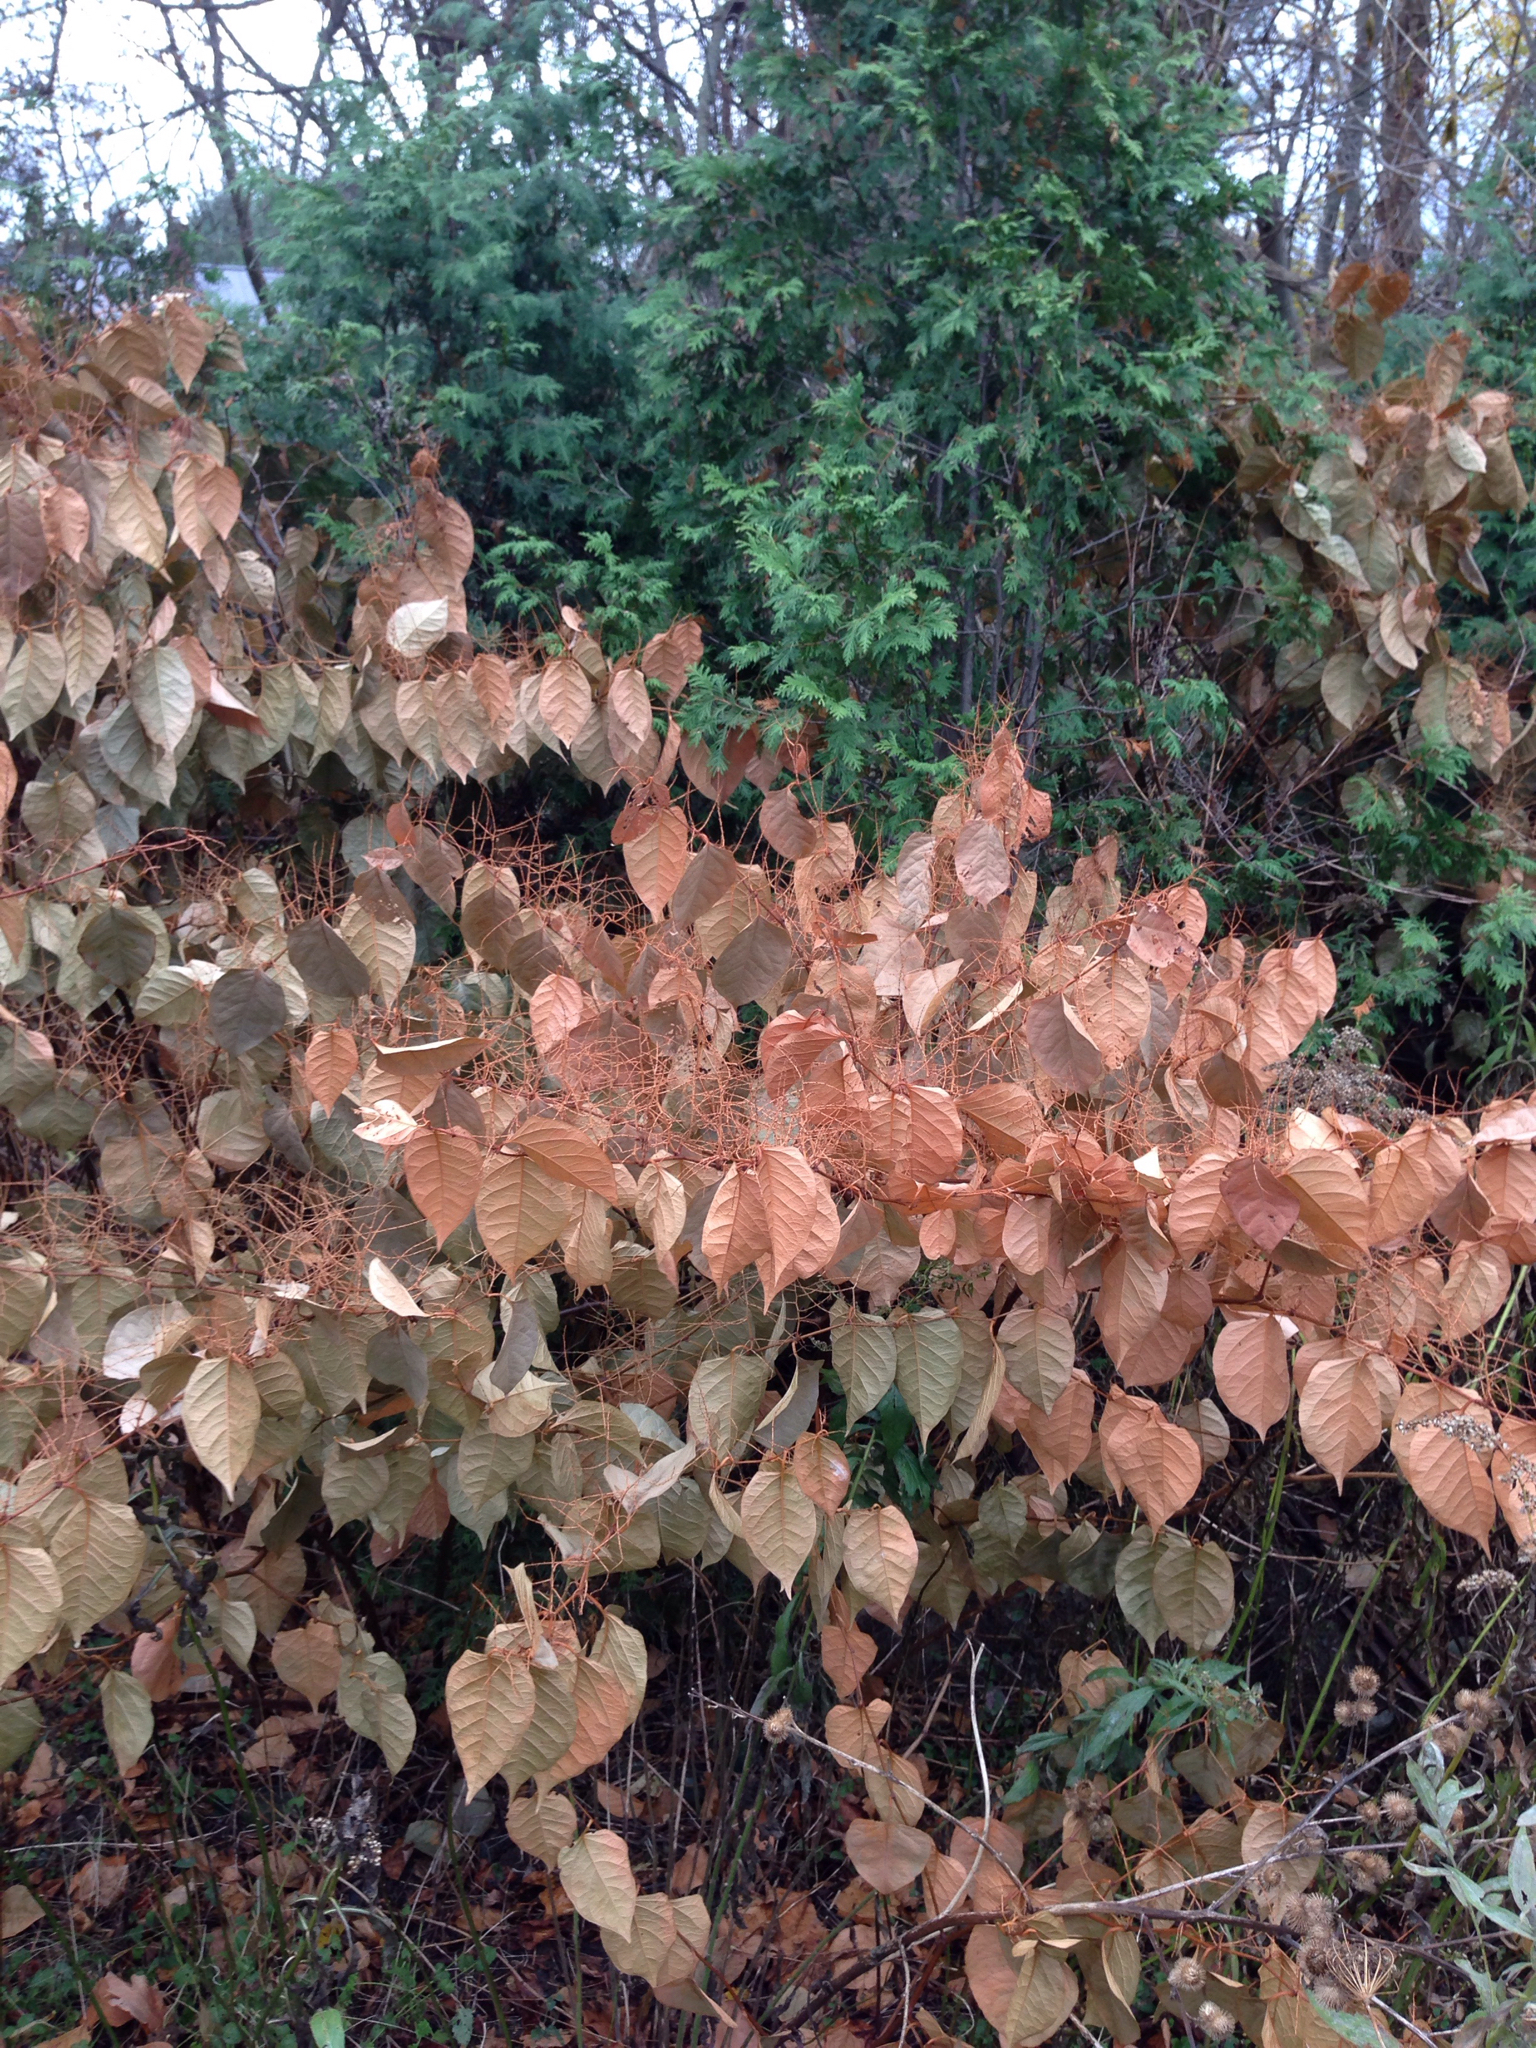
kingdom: Plantae
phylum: Tracheophyta
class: Magnoliopsida
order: Caryophyllales
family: Polygonaceae
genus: Reynoutria
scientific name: Reynoutria japonica
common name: Japanese knotweed
